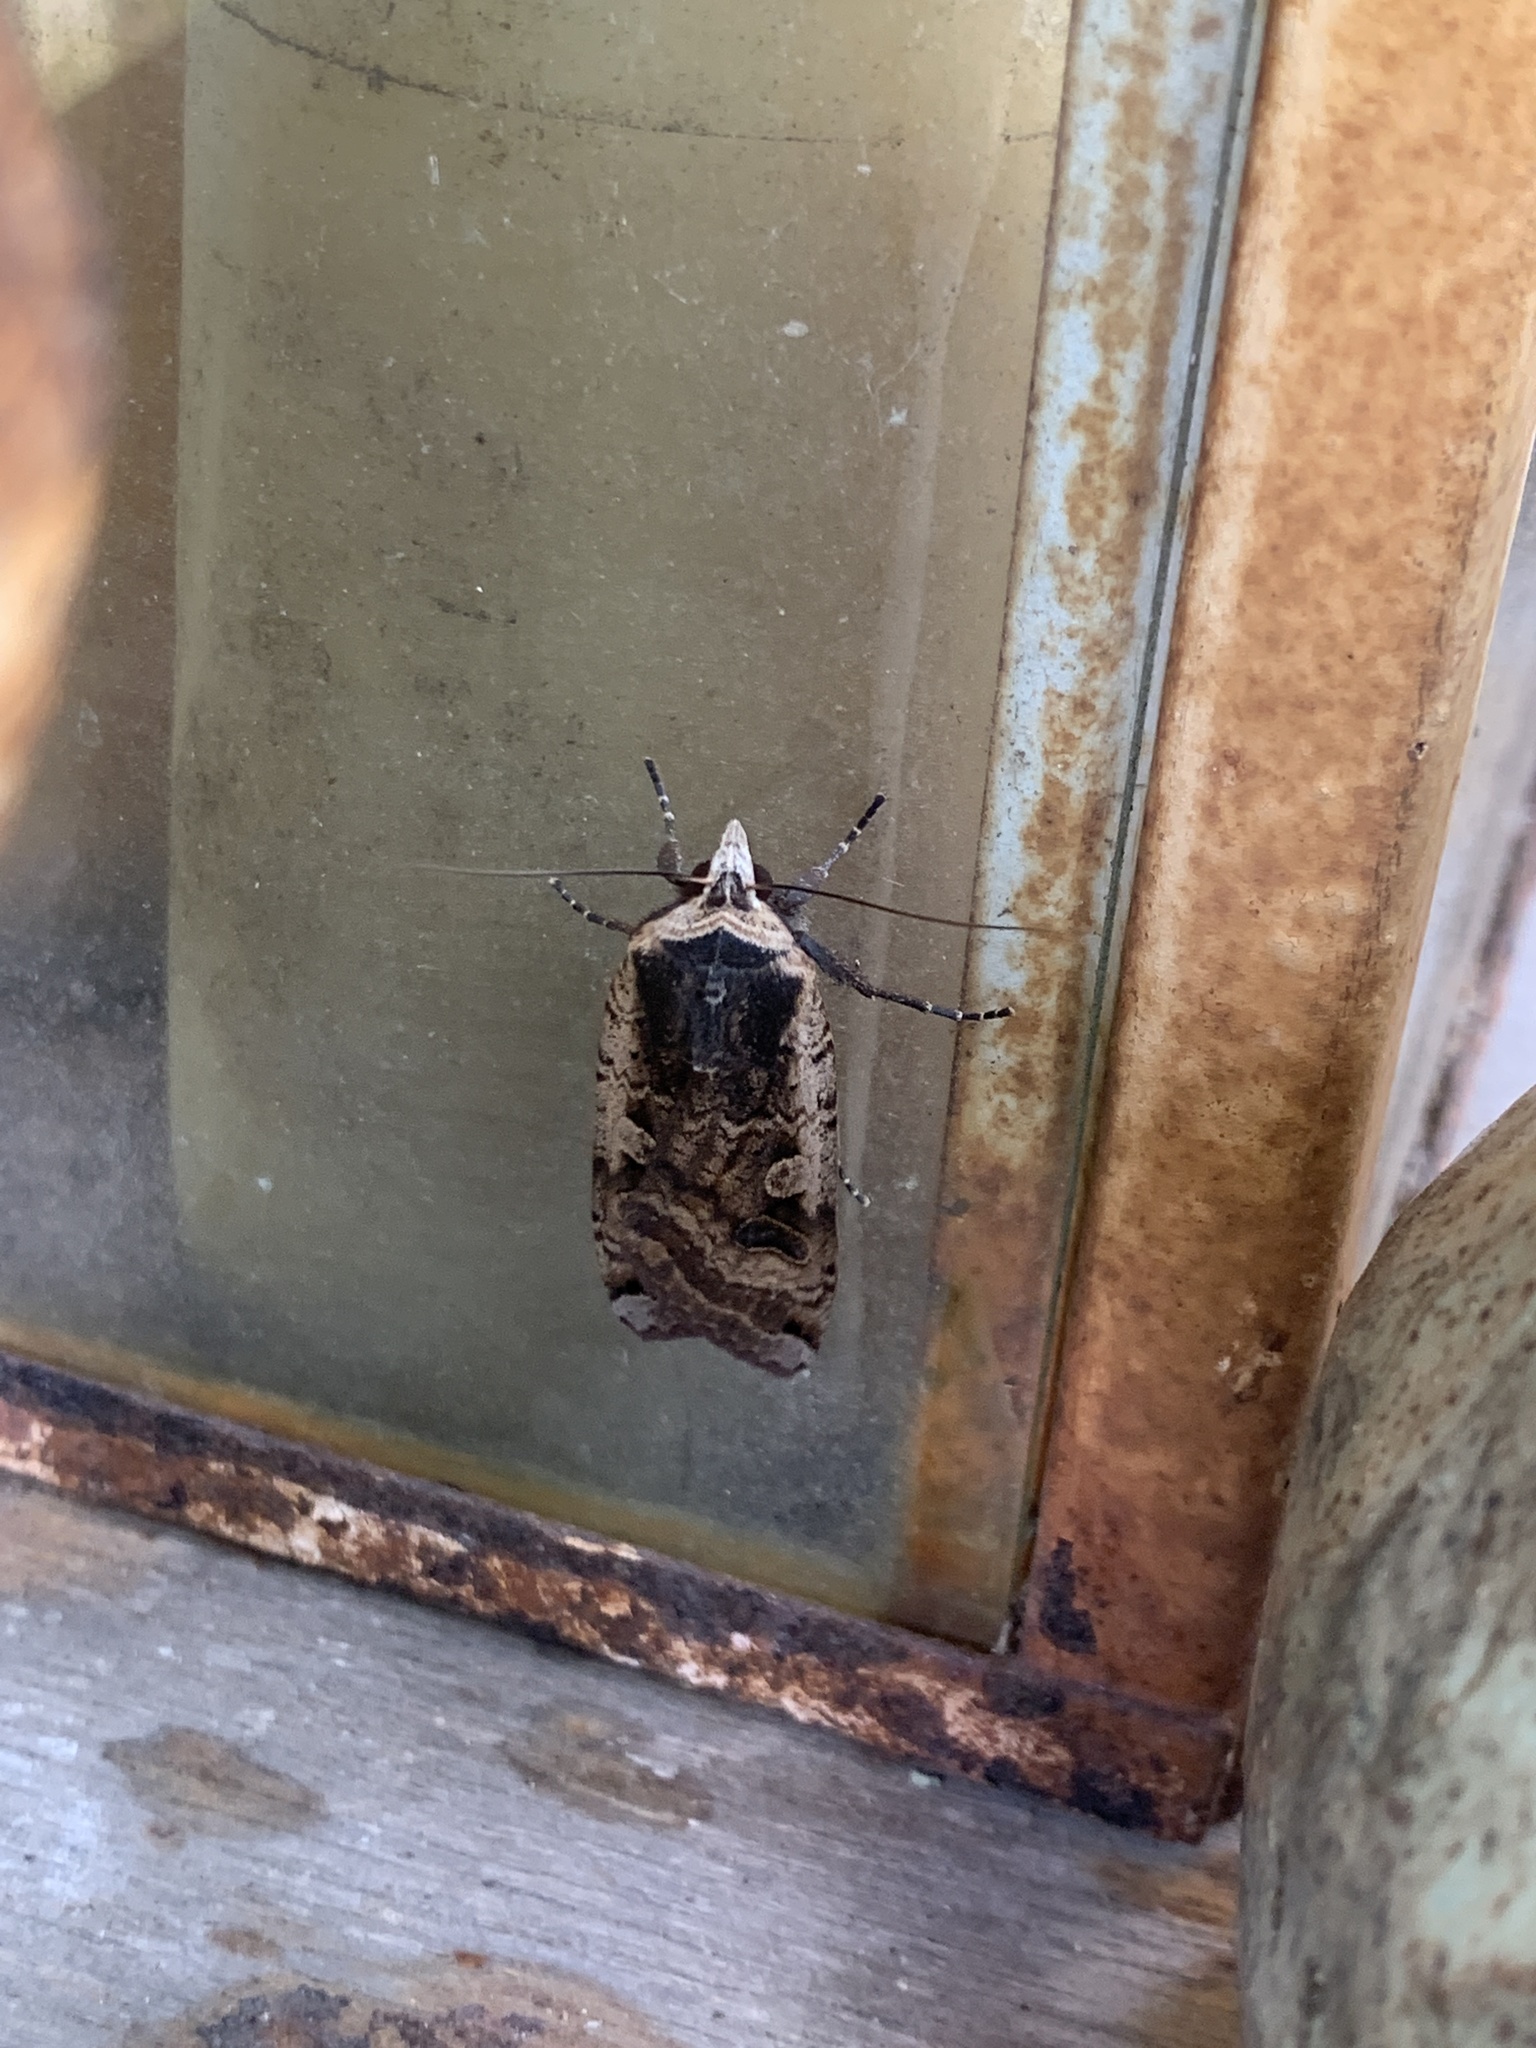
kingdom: Animalia
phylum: Arthropoda
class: Insecta
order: Lepidoptera
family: Noctuidae
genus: Noctua
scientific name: Noctua pronuba
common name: Large yellow underwing
